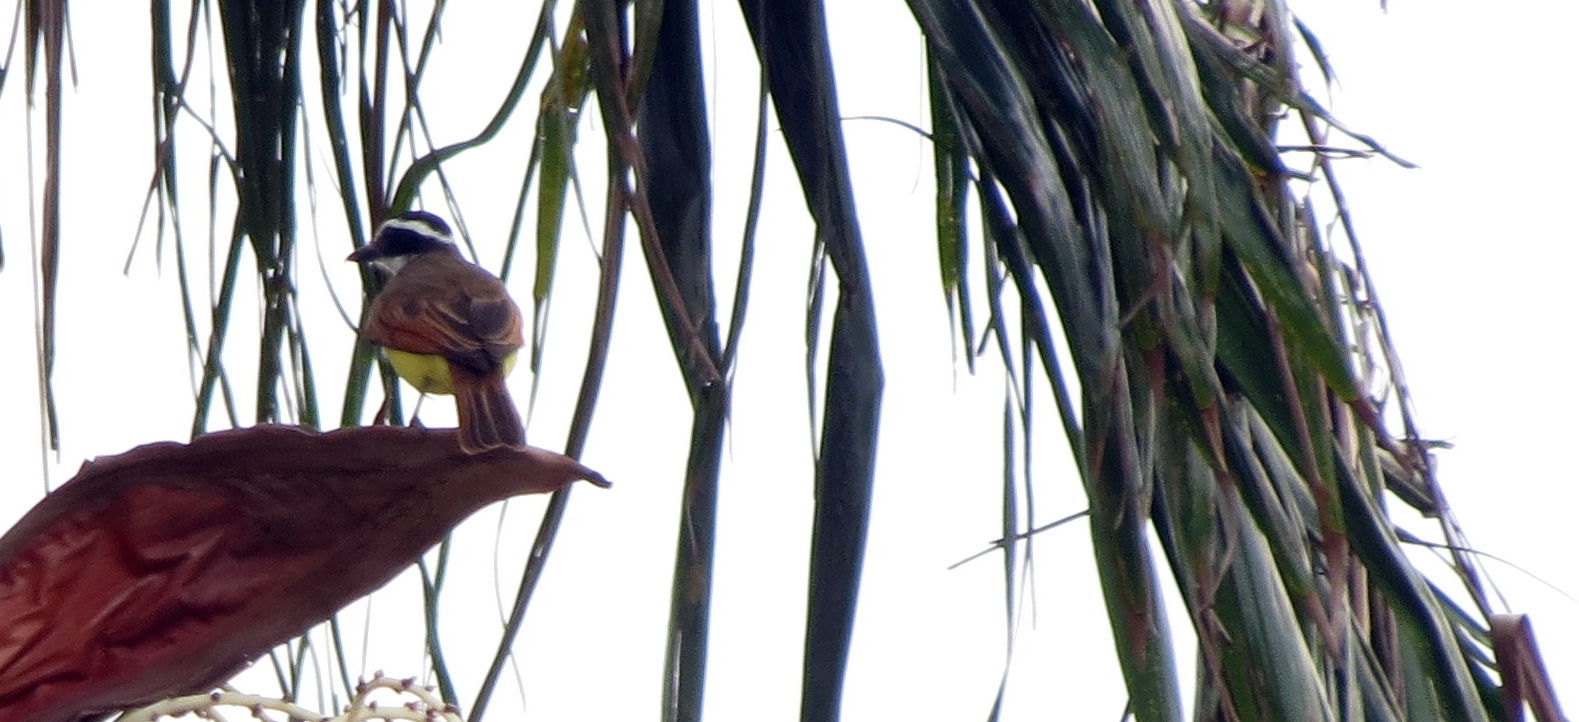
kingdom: Animalia
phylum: Chordata
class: Aves
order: Passeriformes
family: Tyrannidae
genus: Pitangus
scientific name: Pitangus sulphuratus
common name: Great kiskadee
